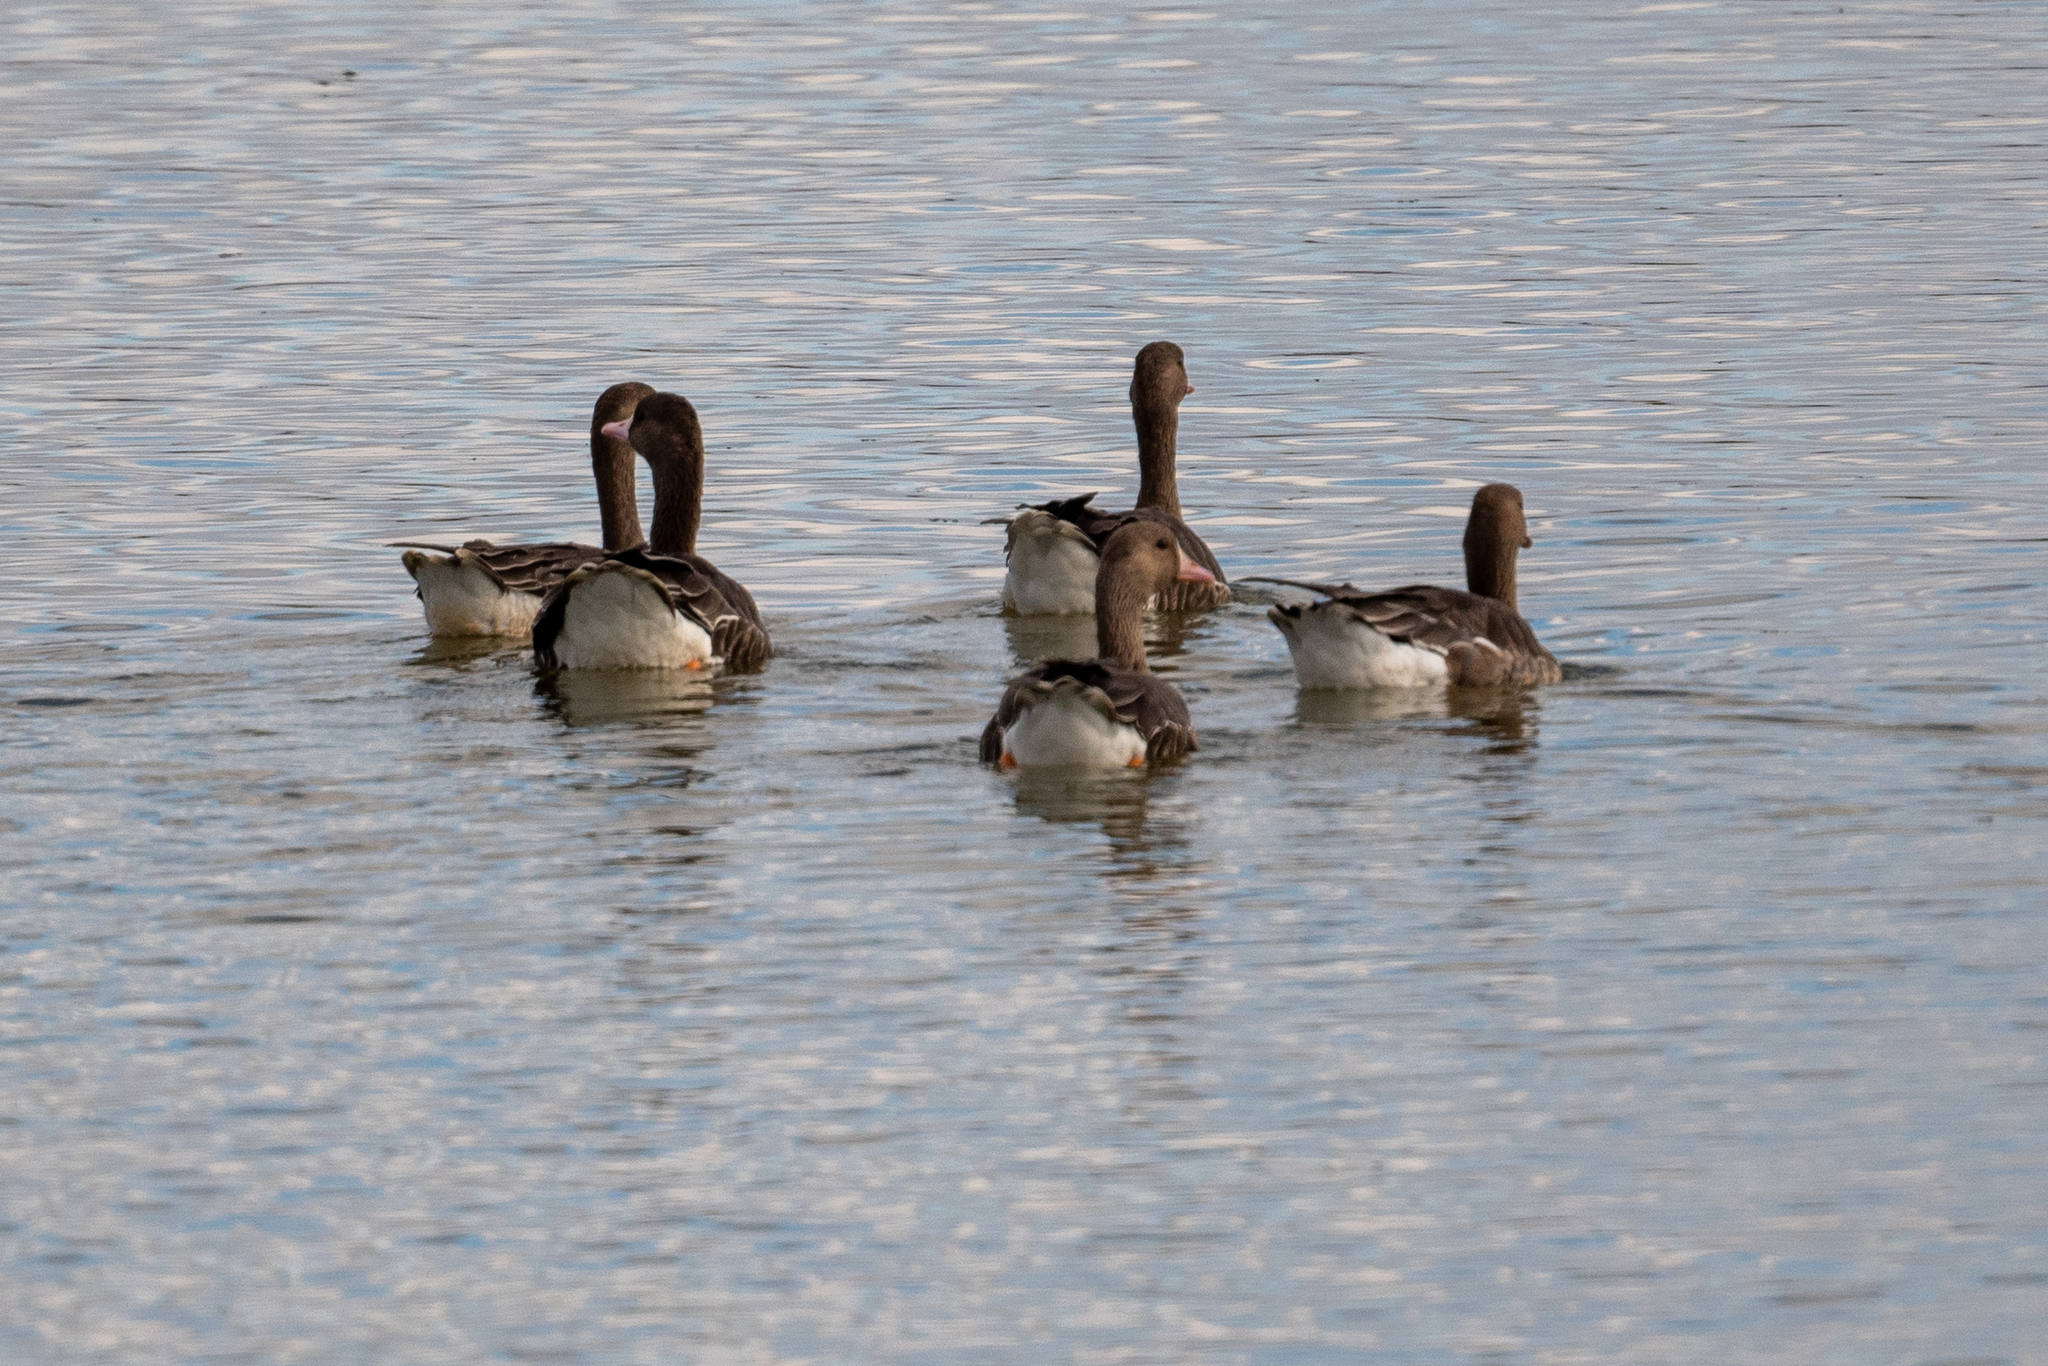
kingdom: Animalia
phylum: Chordata
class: Aves
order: Anseriformes
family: Anatidae
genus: Anser
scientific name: Anser albifrons
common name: Greater white-fronted goose
